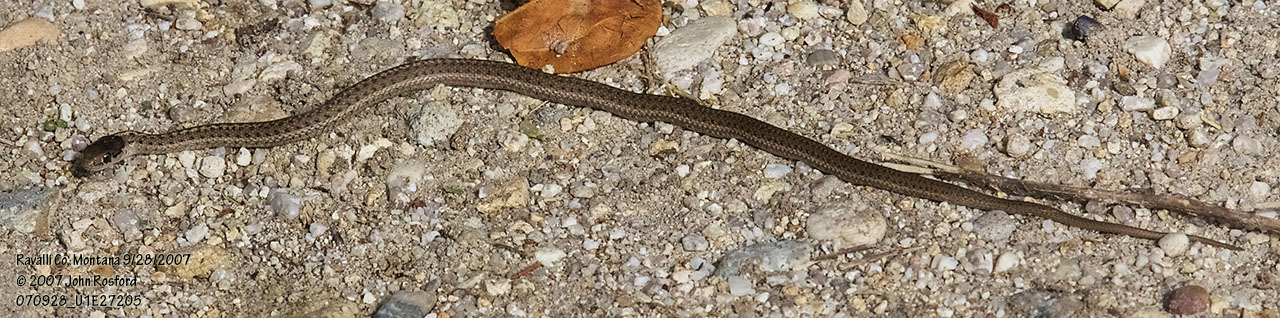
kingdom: Animalia
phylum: Chordata
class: Squamata
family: Colubridae
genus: Thamnophis
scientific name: Thamnophis elegans
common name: Western terrestrial garter snake
